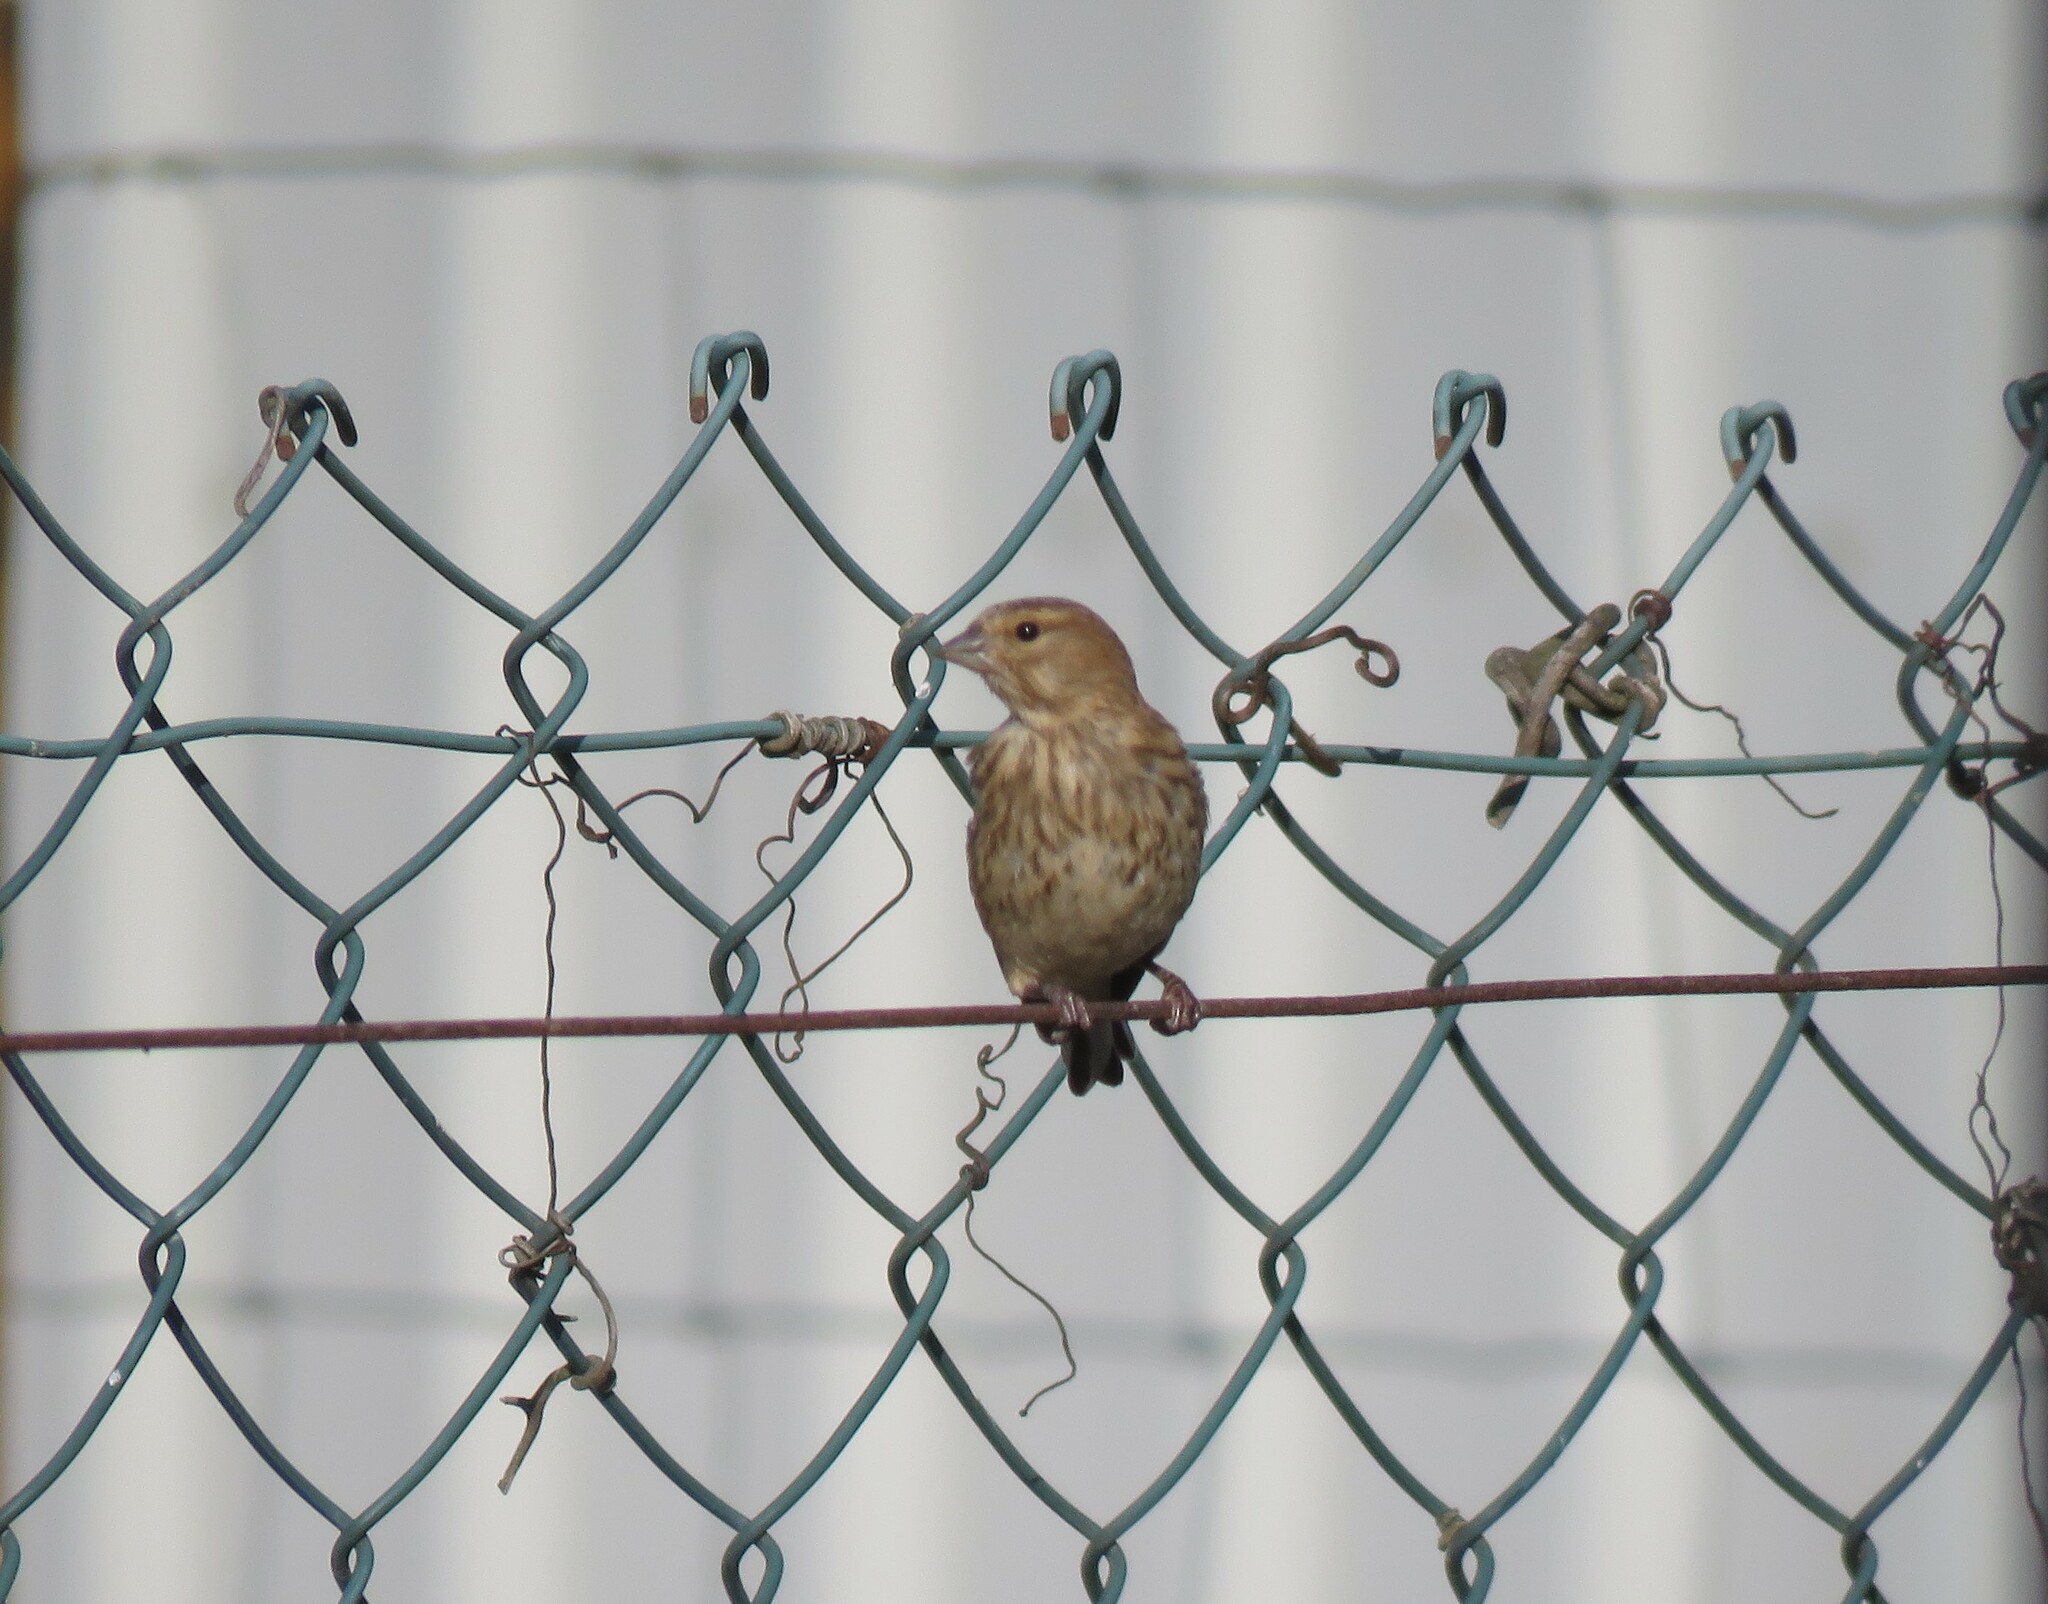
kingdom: Animalia
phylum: Chordata
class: Aves
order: Passeriformes
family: Fringillidae
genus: Linaria
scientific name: Linaria cannabina
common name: Common linnet
